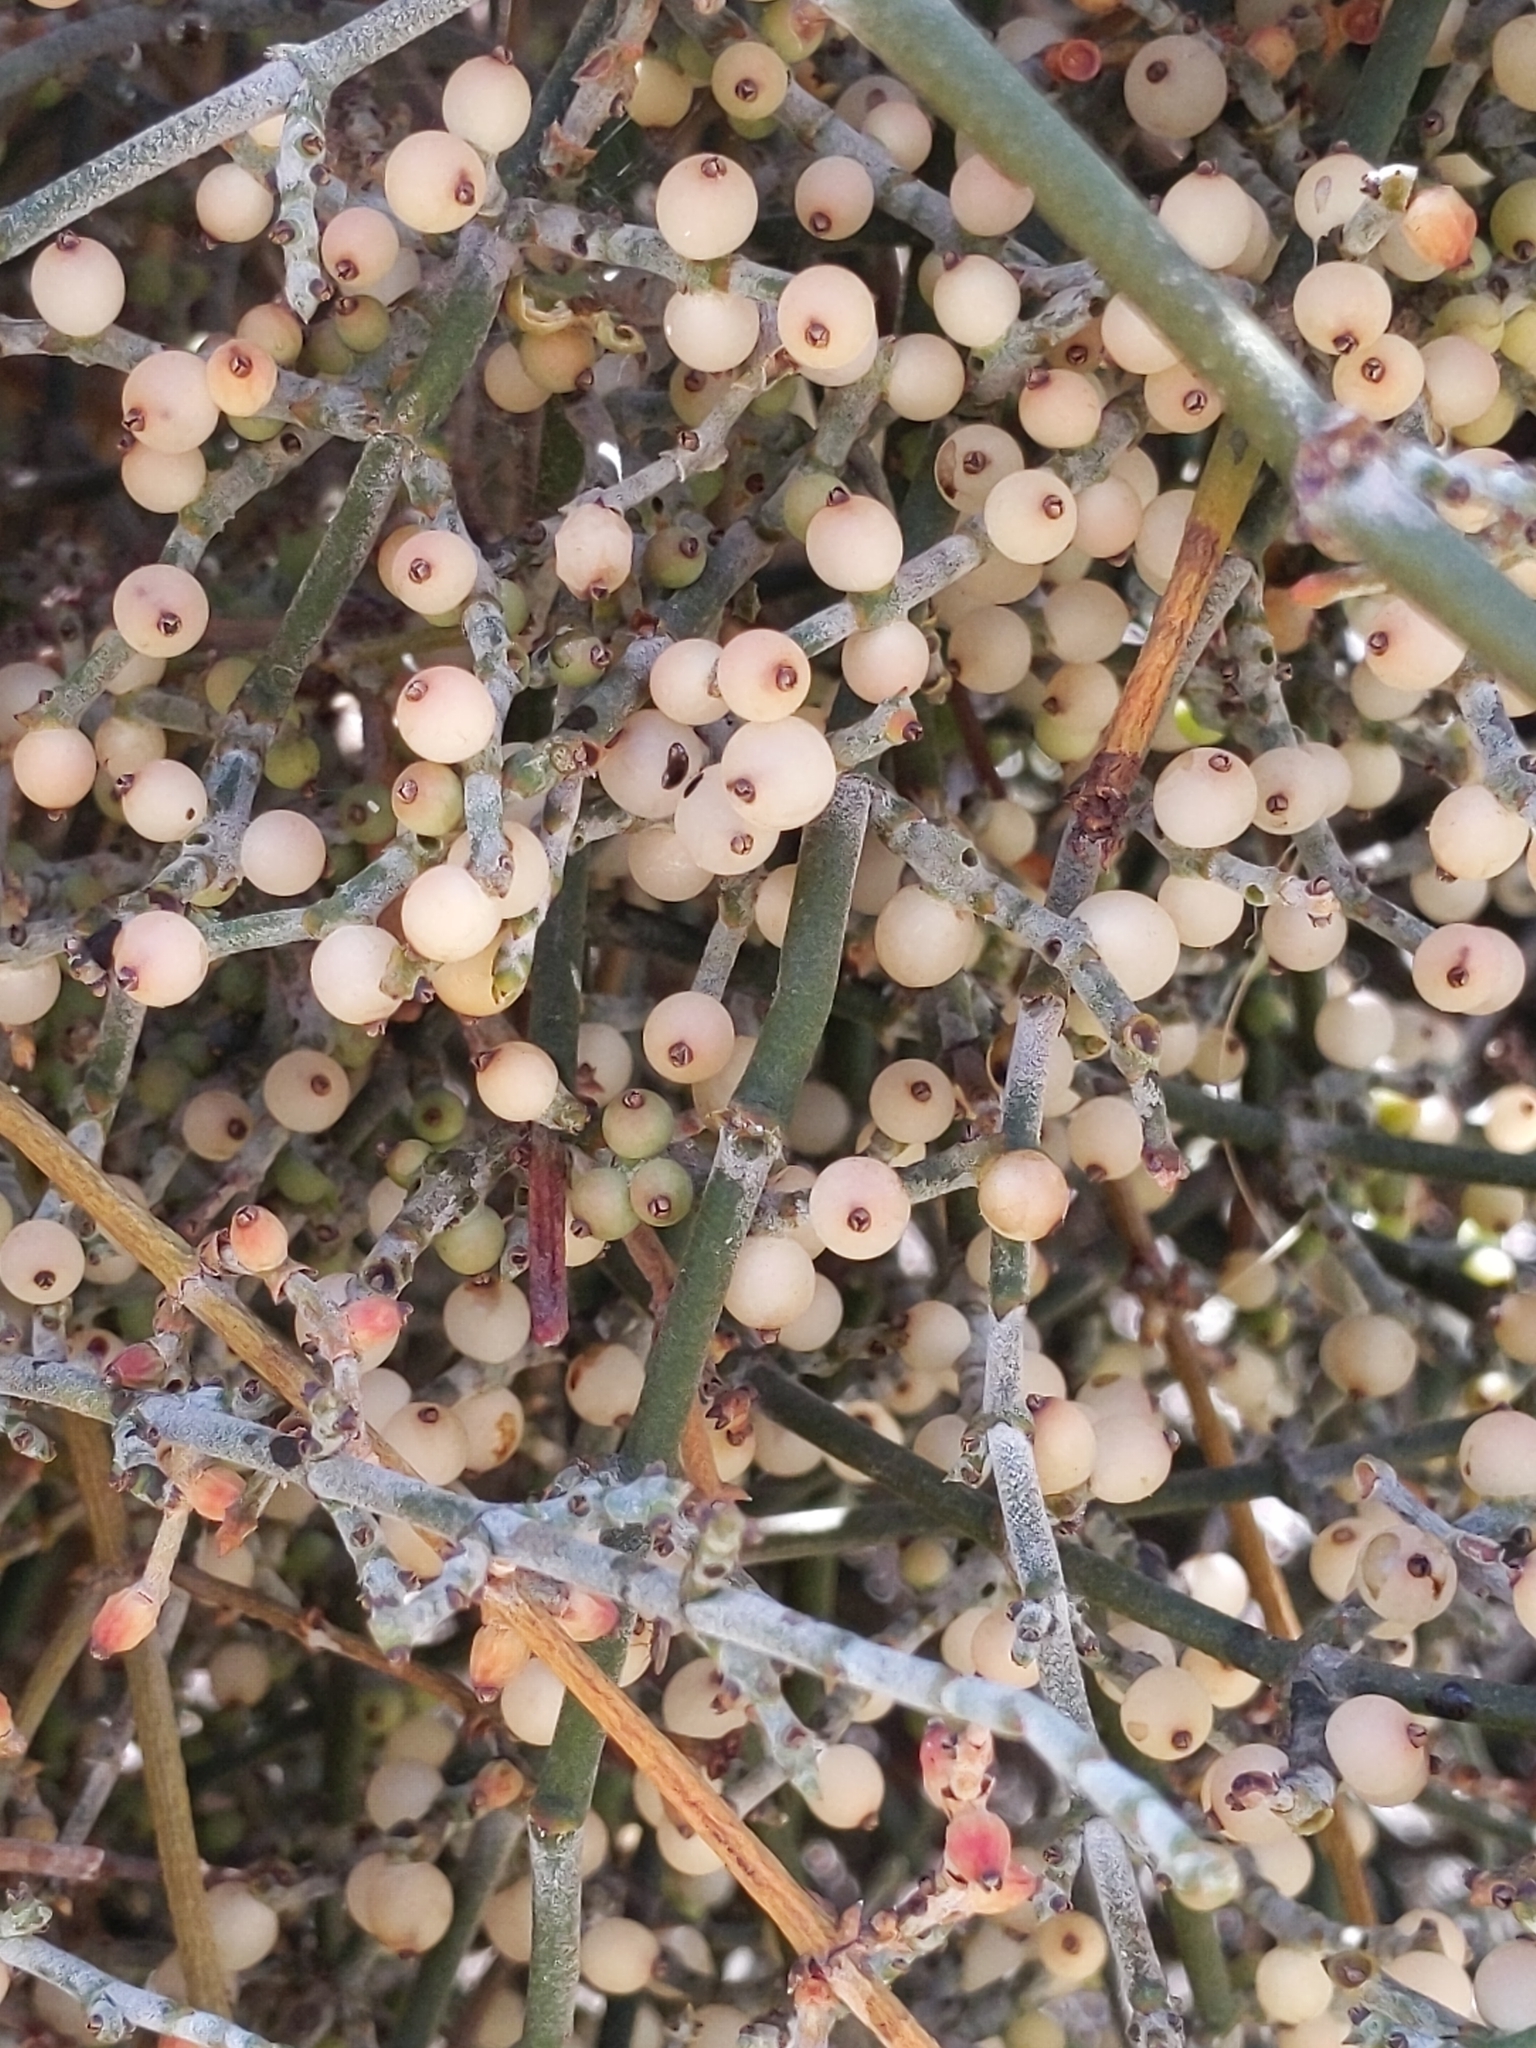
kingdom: Plantae
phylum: Tracheophyta
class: Magnoliopsida
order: Santalales
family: Viscaceae
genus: Phoradendron
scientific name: Phoradendron californicum
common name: Acacia mistletoe
